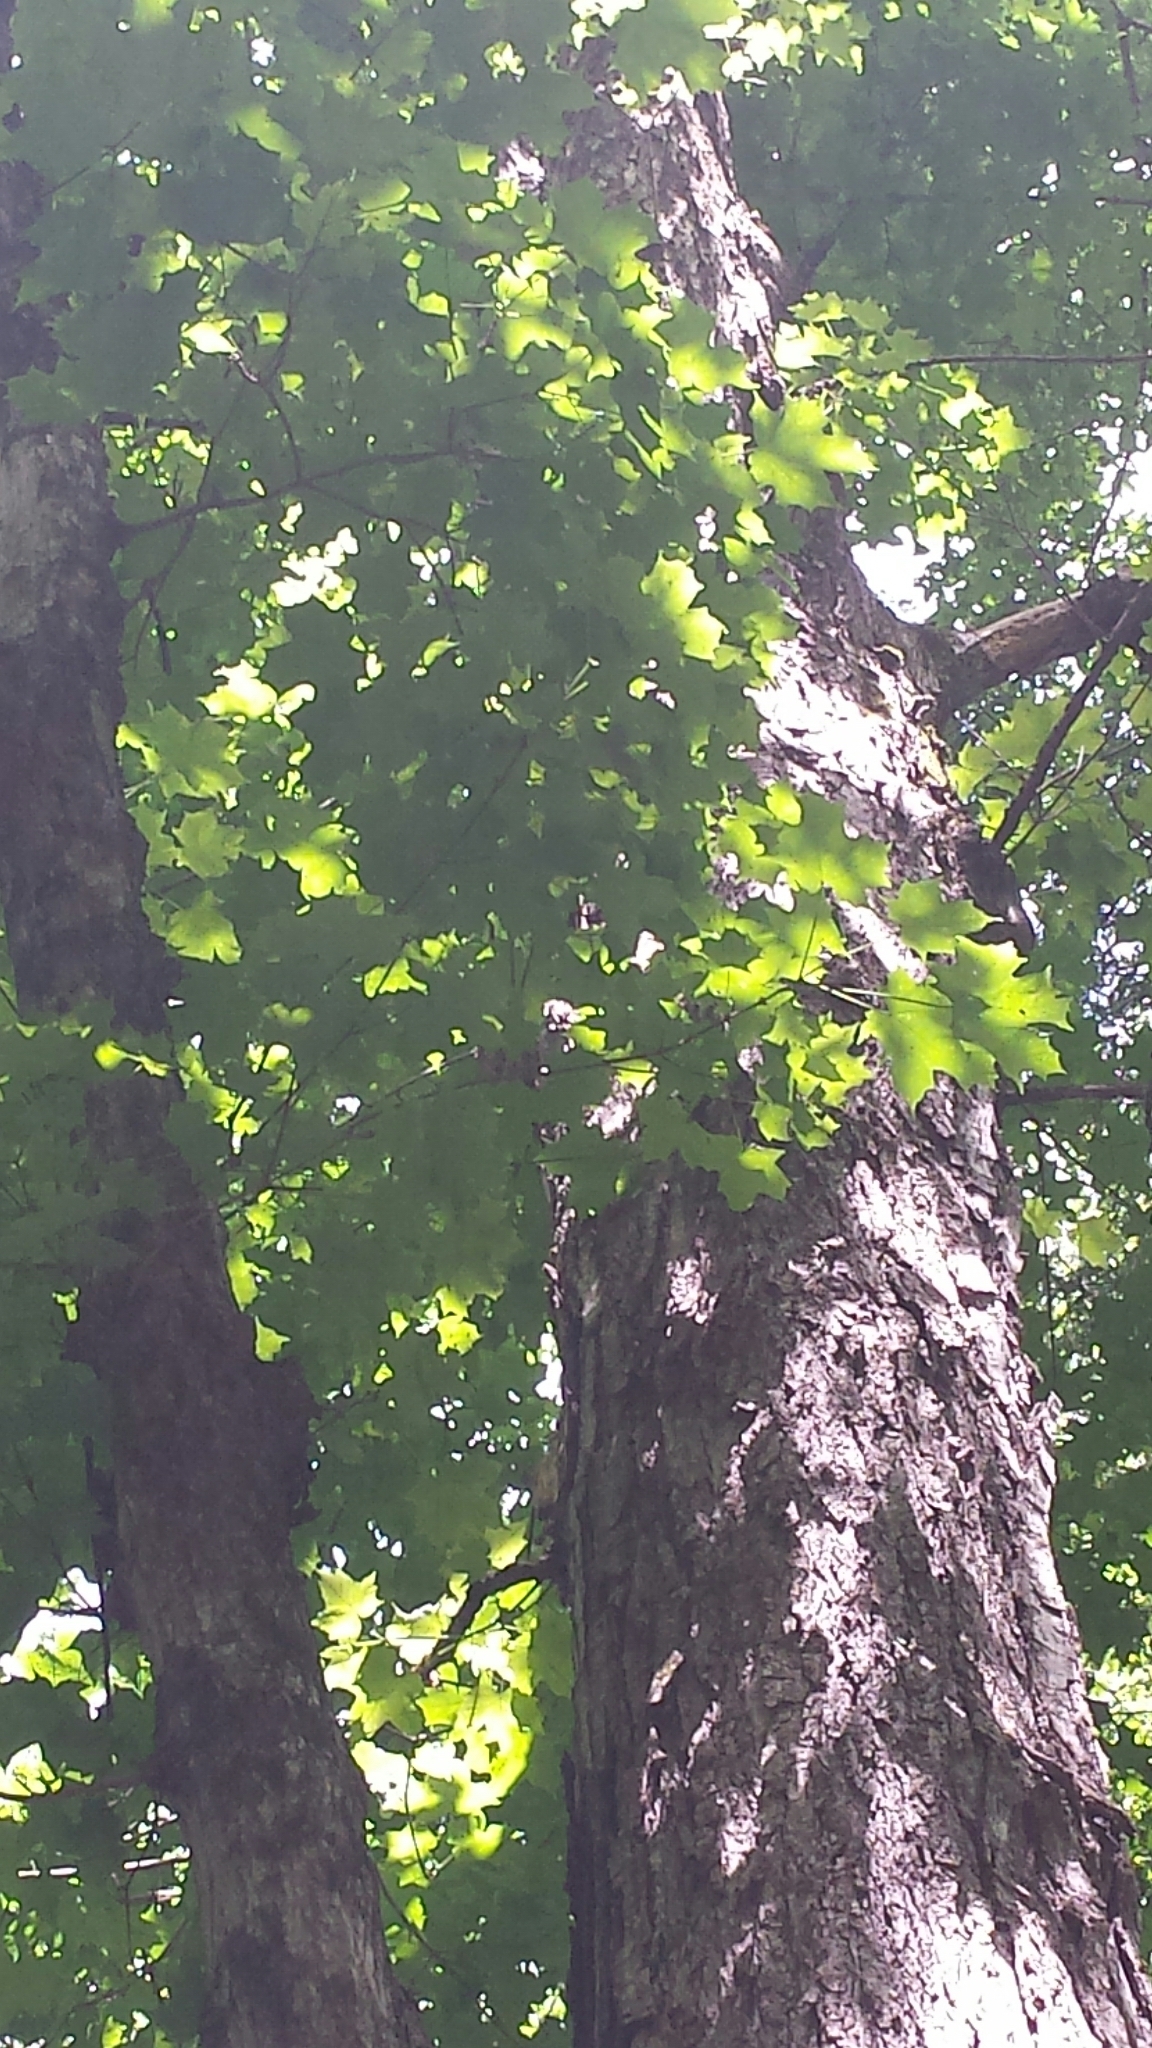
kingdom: Plantae
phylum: Tracheophyta
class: Magnoliopsida
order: Sapindales
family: Sapindaceae
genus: Acer
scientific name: Acer saccharum
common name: Sugar maple
